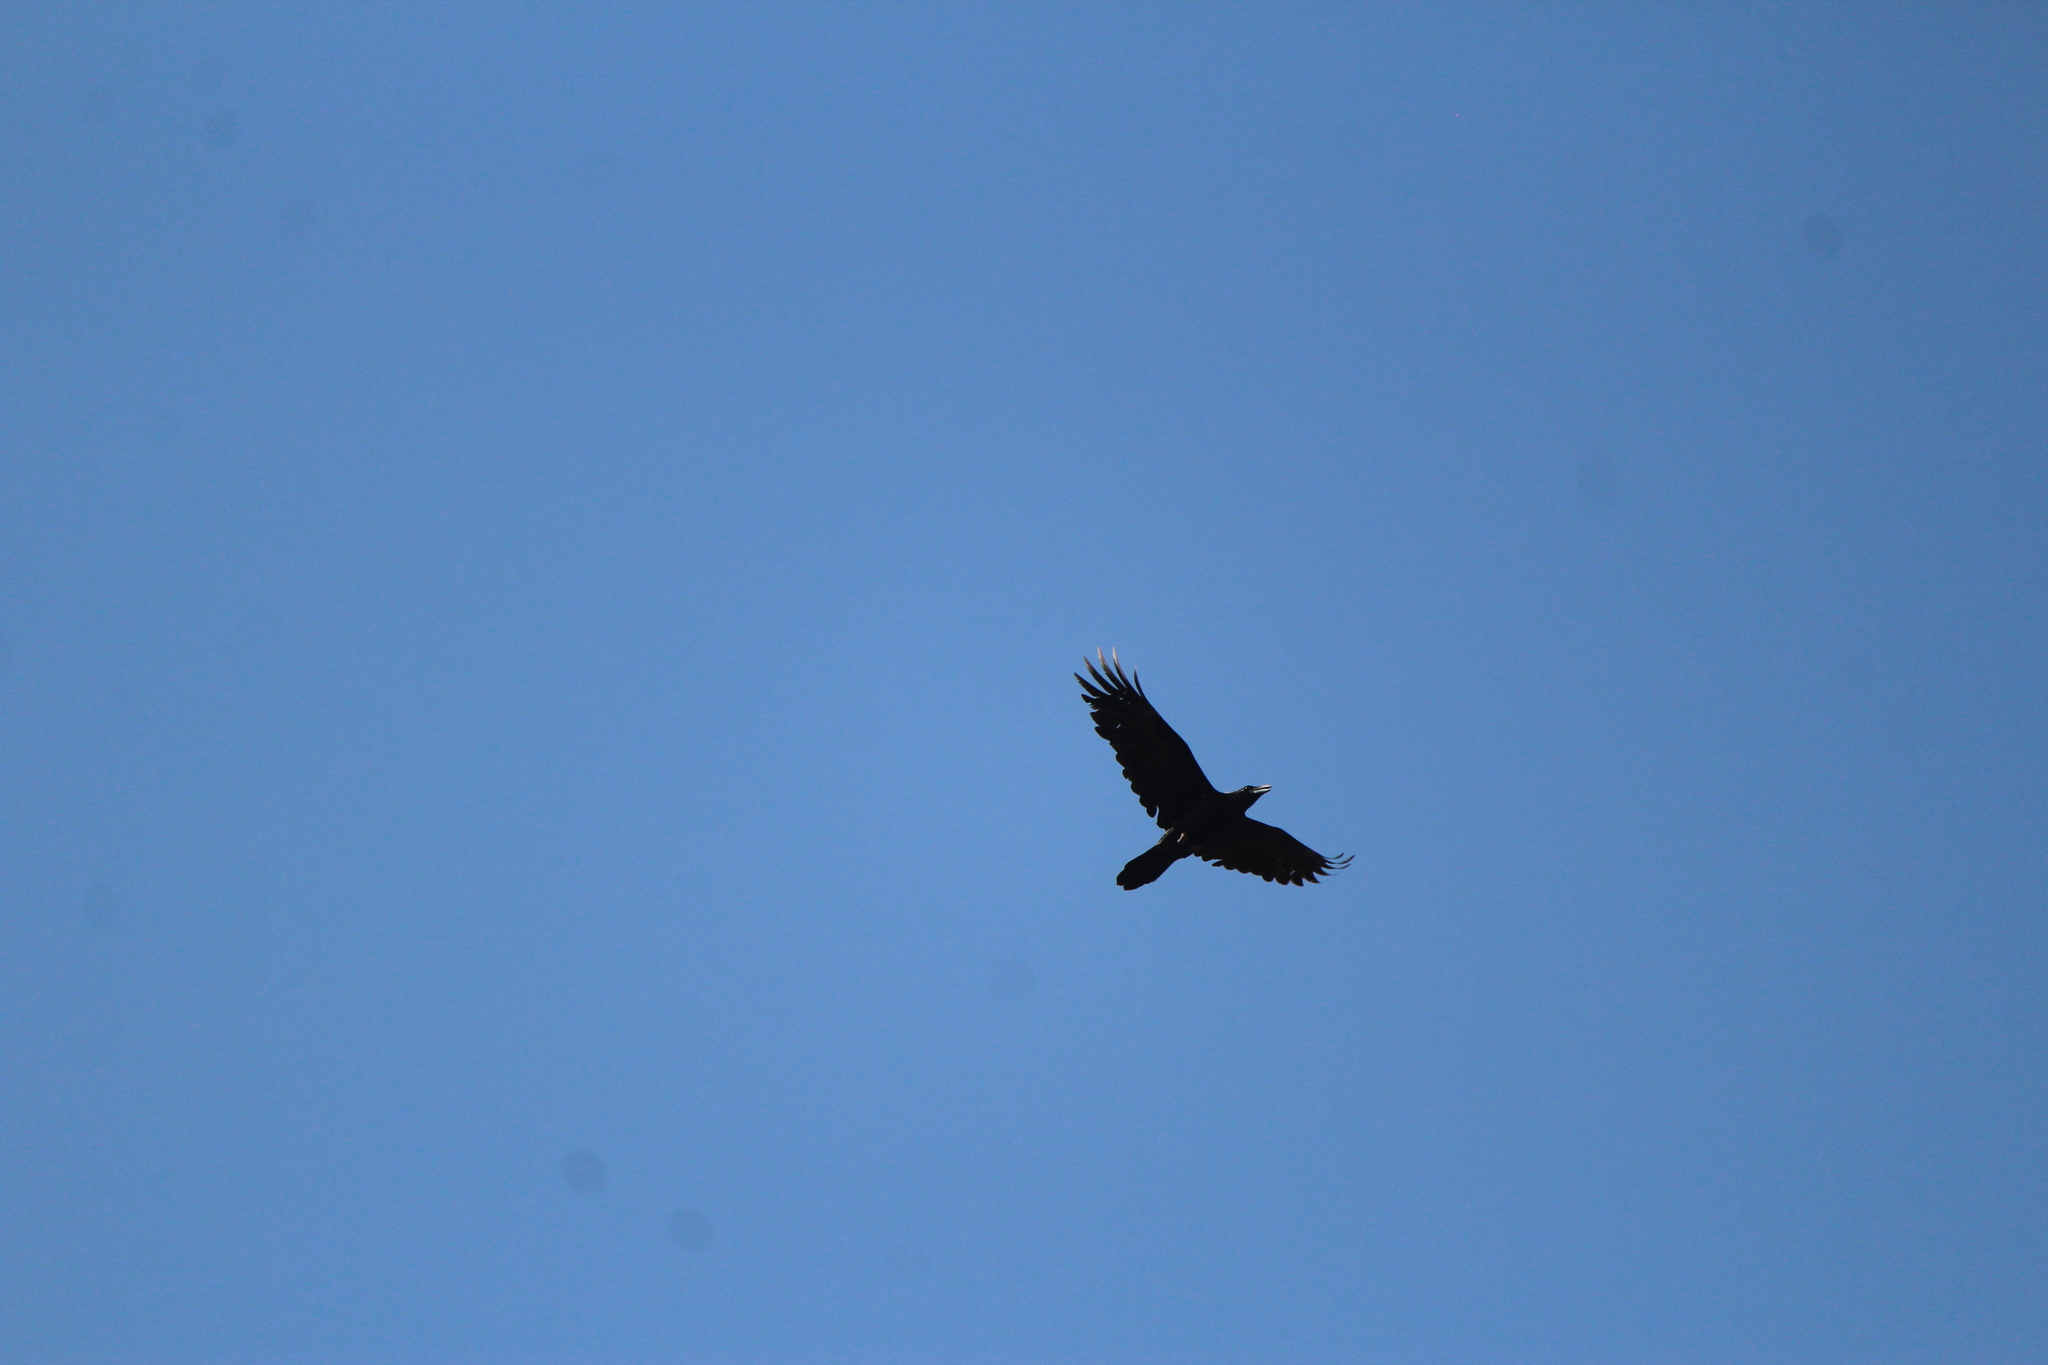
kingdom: Animalia
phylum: Chordata
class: Aves
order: Passeriformes
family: Corvidae
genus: Corvus
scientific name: Corvus corax
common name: Common raven
